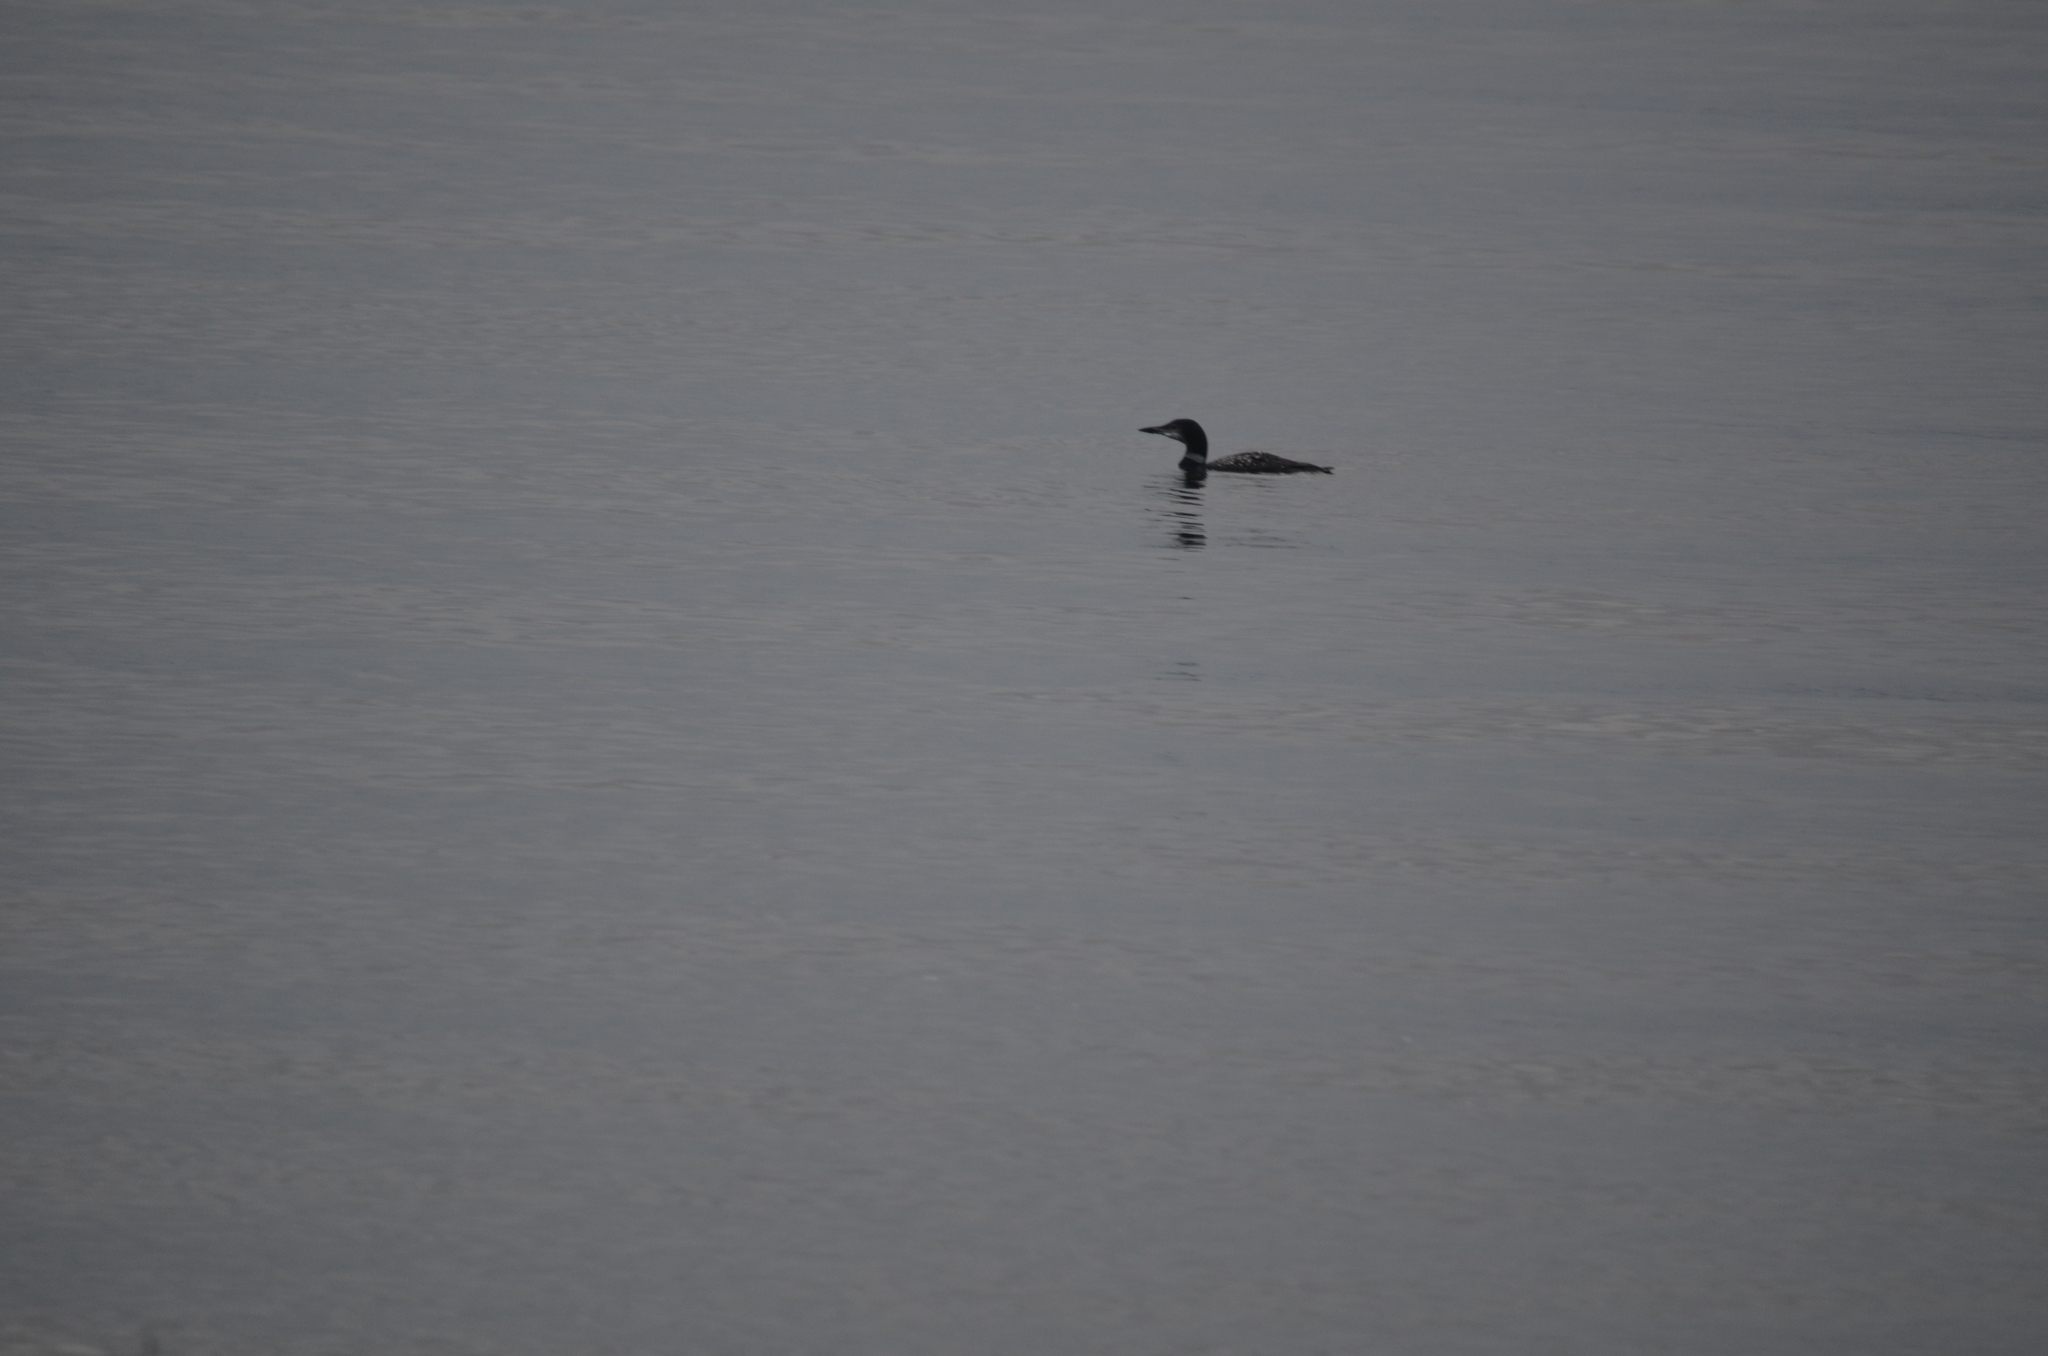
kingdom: Animalia
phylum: Chordata
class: Aves
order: Gaviiformes
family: Gaviidae
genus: Gavia
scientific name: Gavia immer
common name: Common loon
